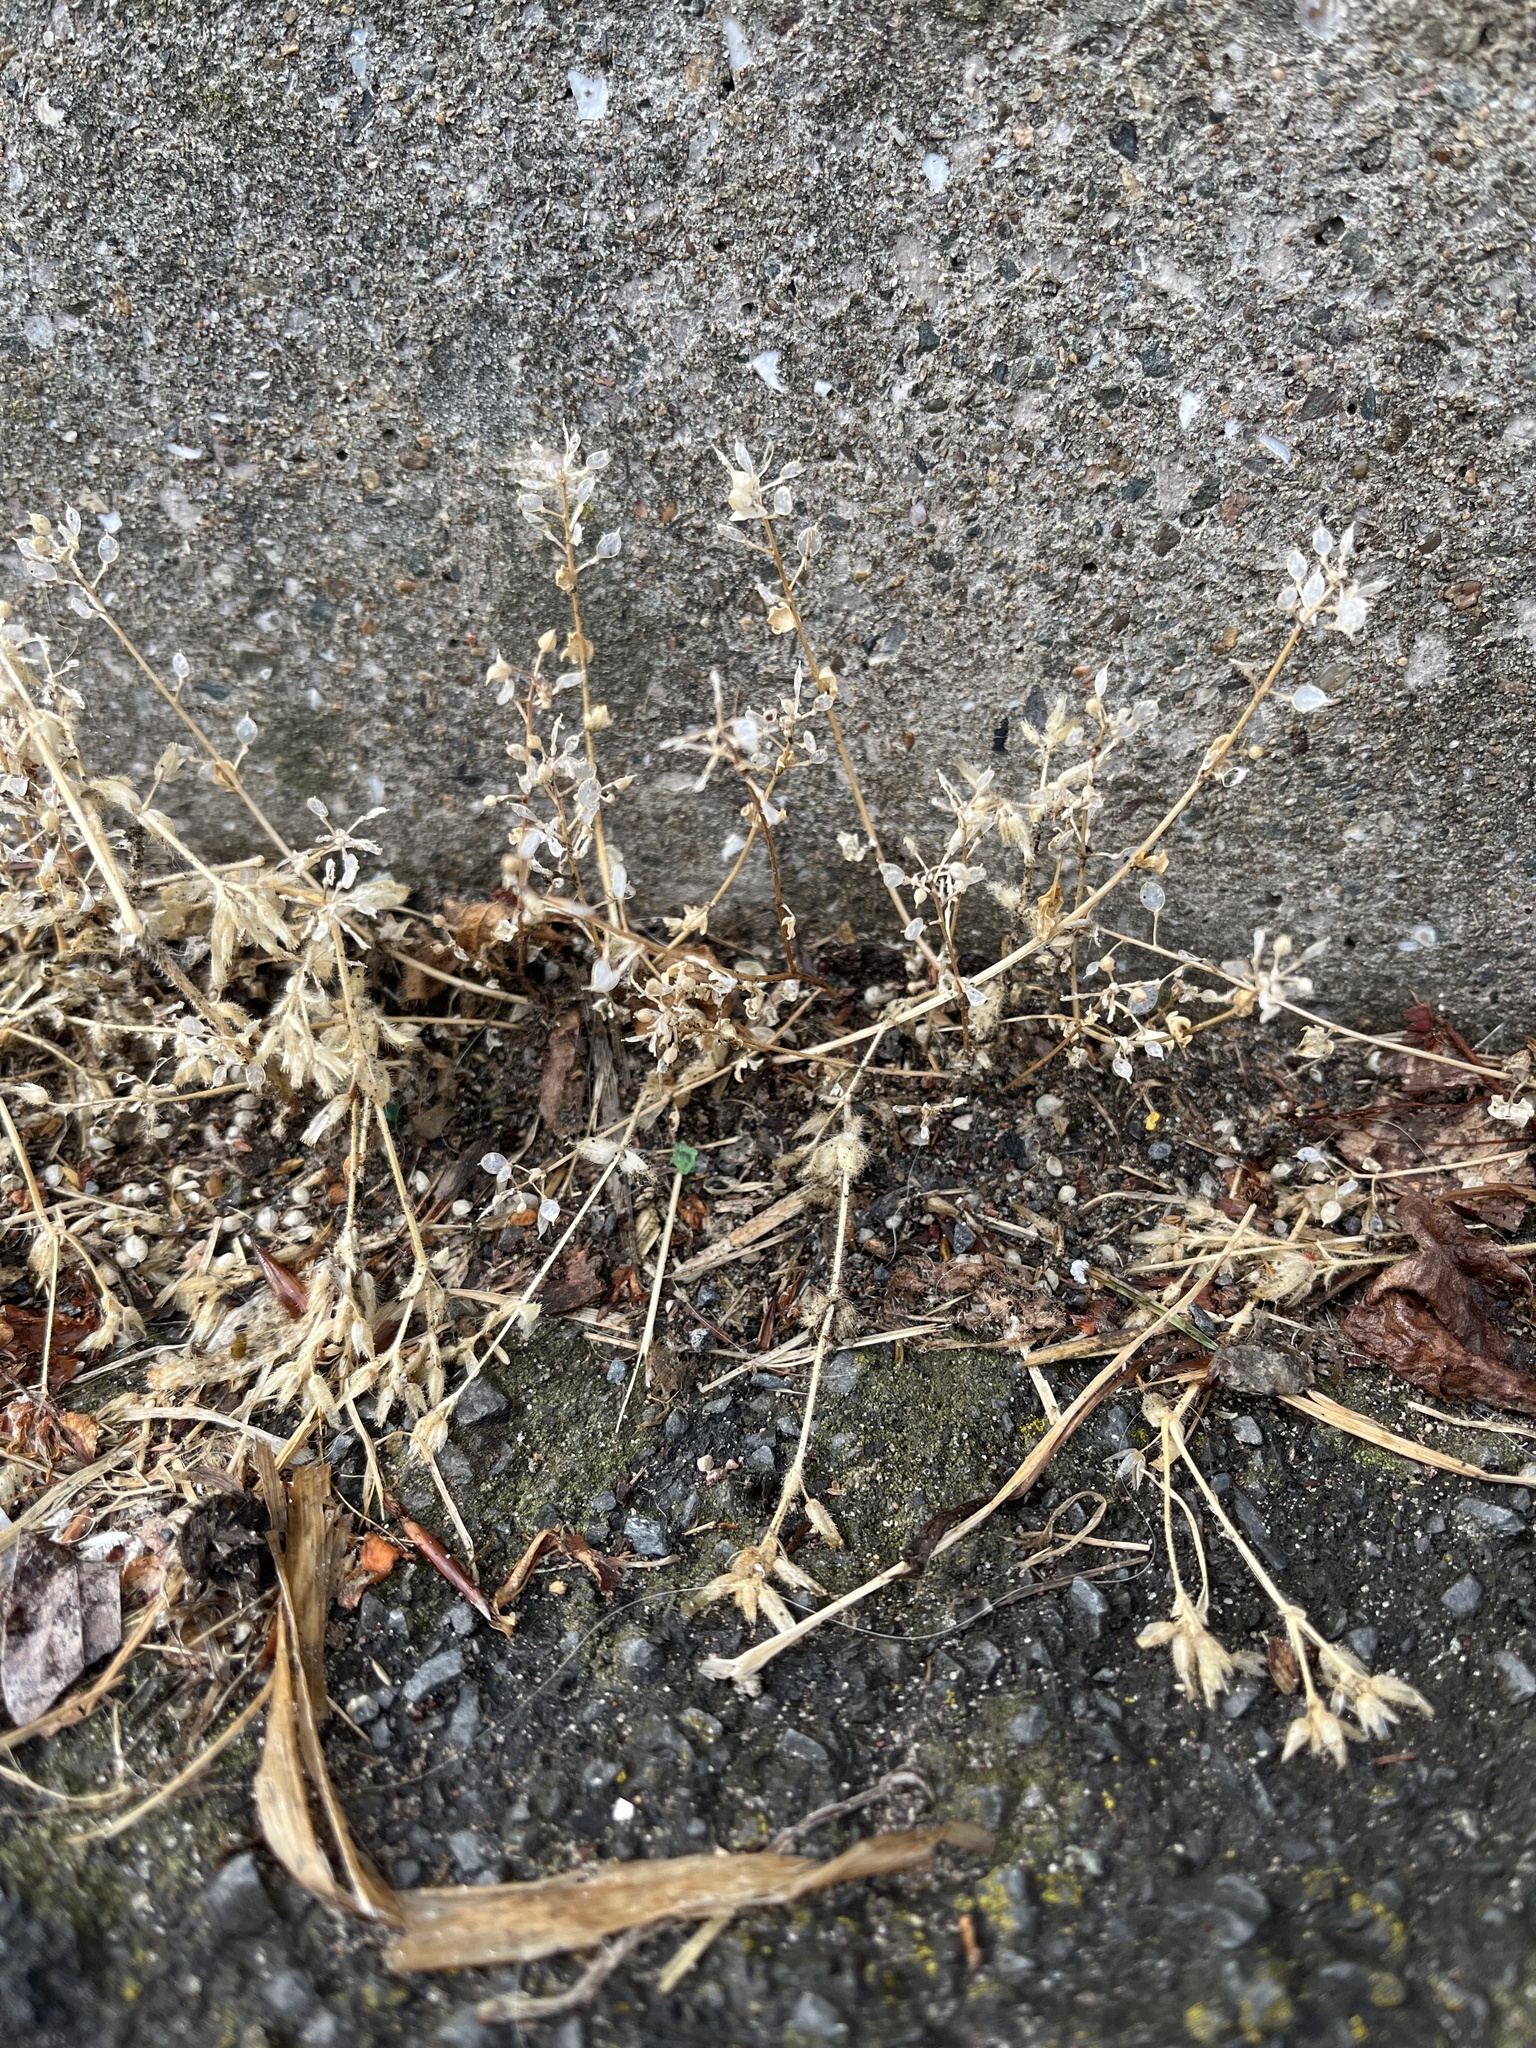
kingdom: Plantae
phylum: Tracheophyta
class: Magnoliopsida
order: Brassicales
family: Brassicaceae
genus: Cochlearia
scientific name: Cochlearia danica
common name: Early scurvygrass
